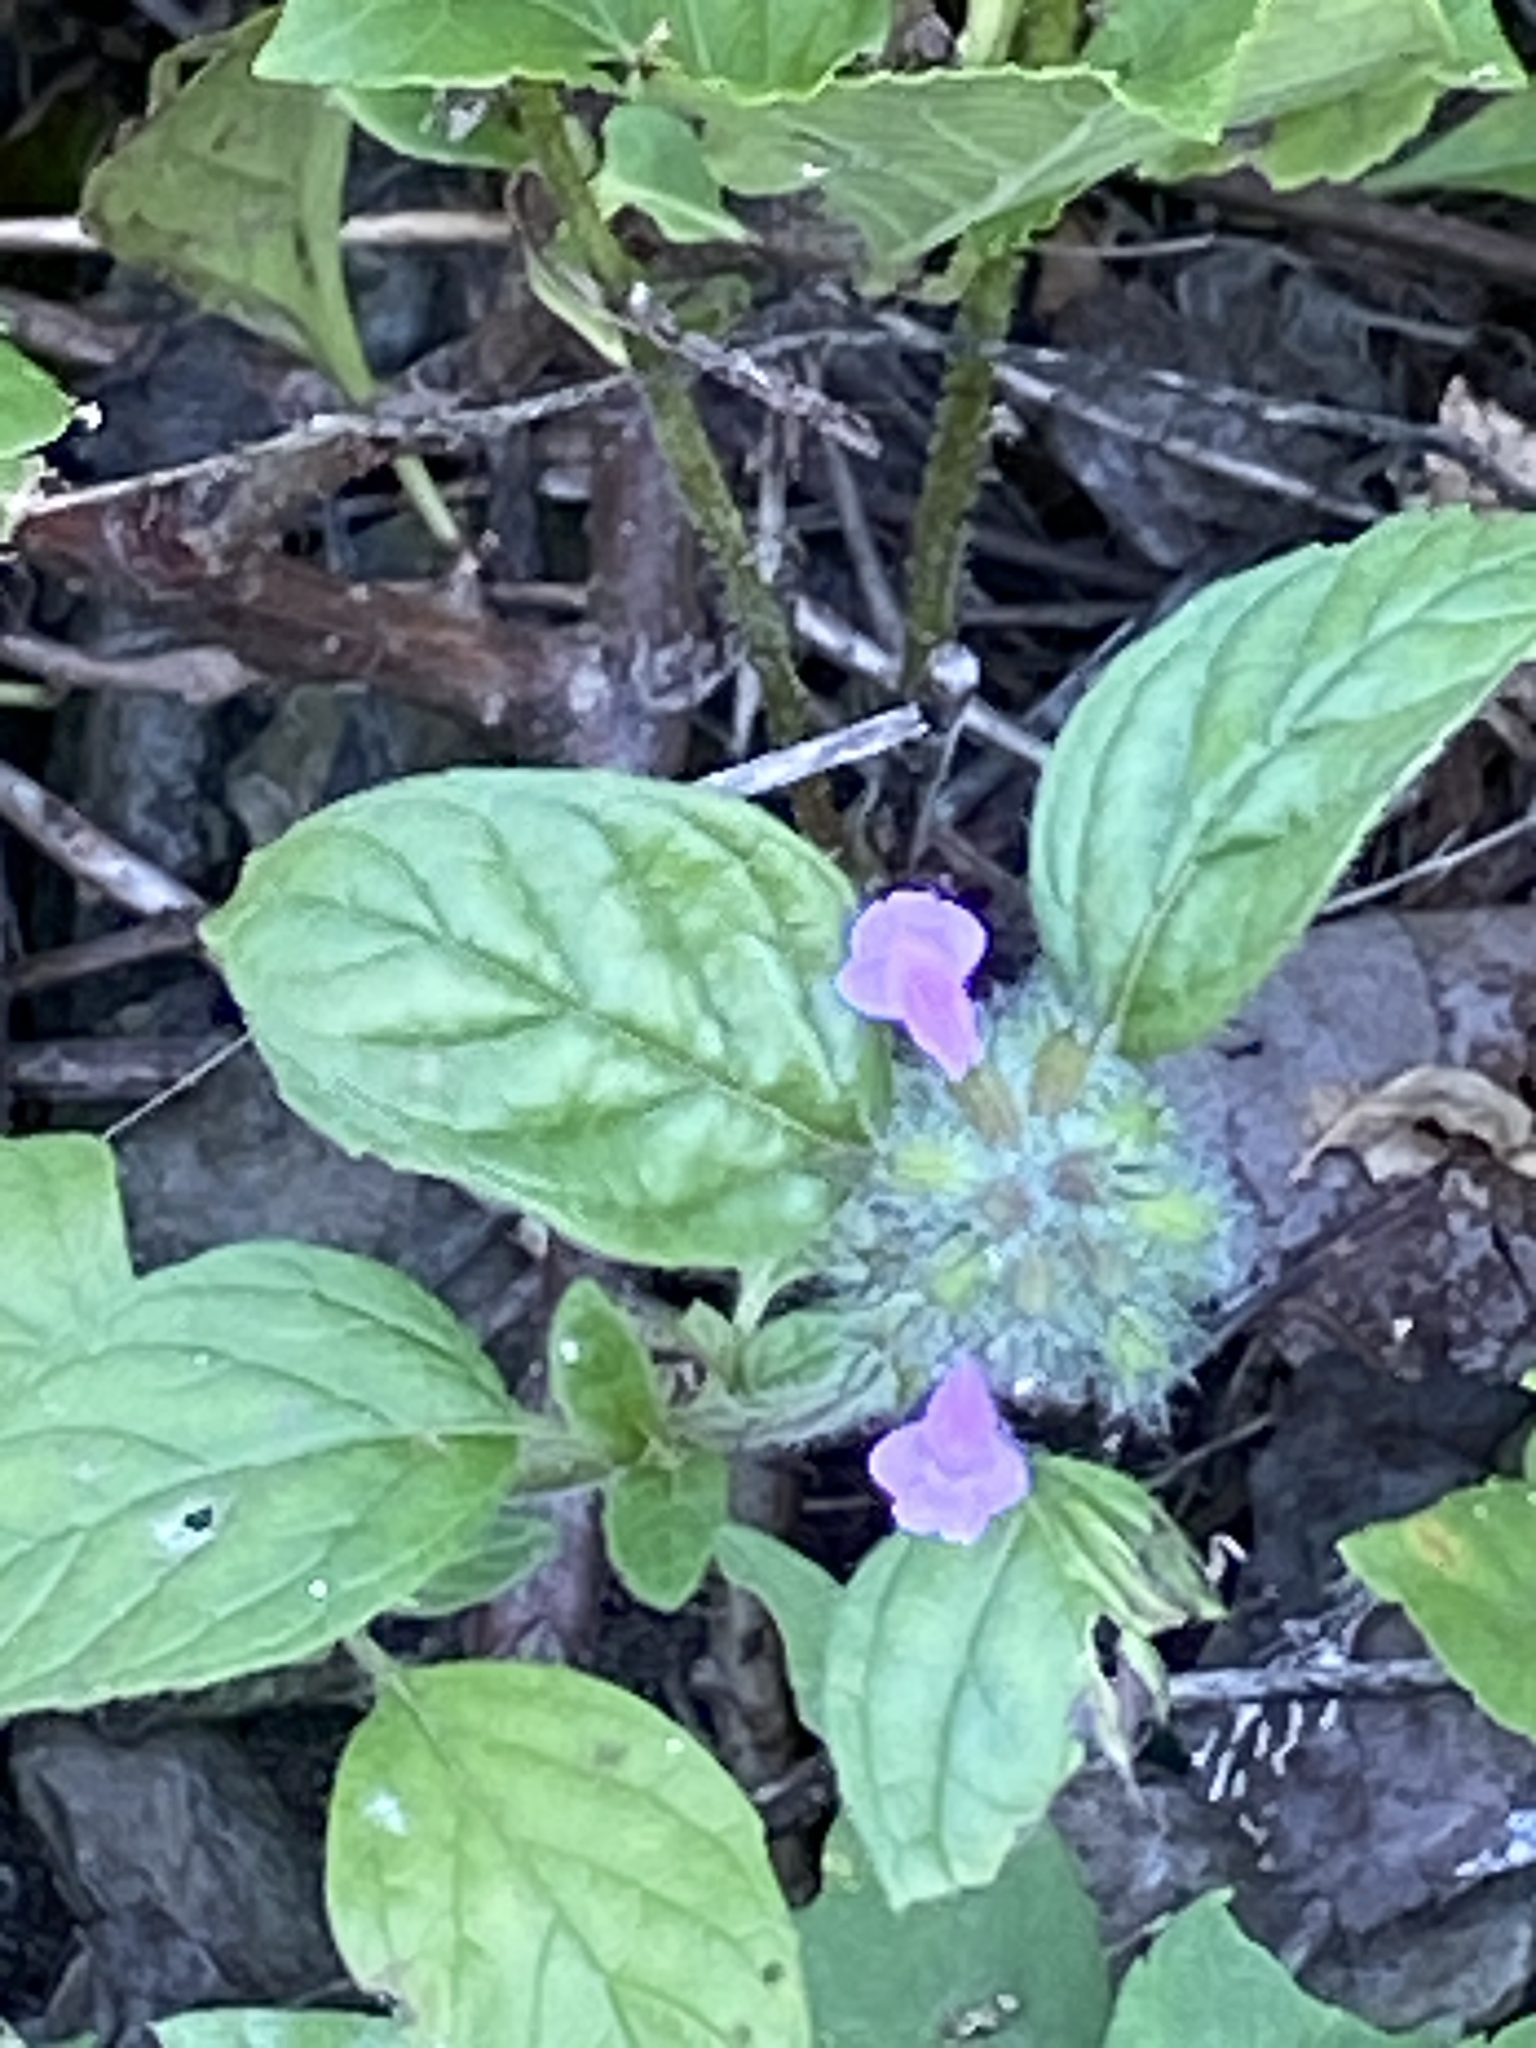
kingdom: Plantae
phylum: Tracheophyta
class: Magnoliopsida
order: Lamiales
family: Lamiaceae
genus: Clinopodium
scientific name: Clinopodium vulgare
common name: Wild basil
